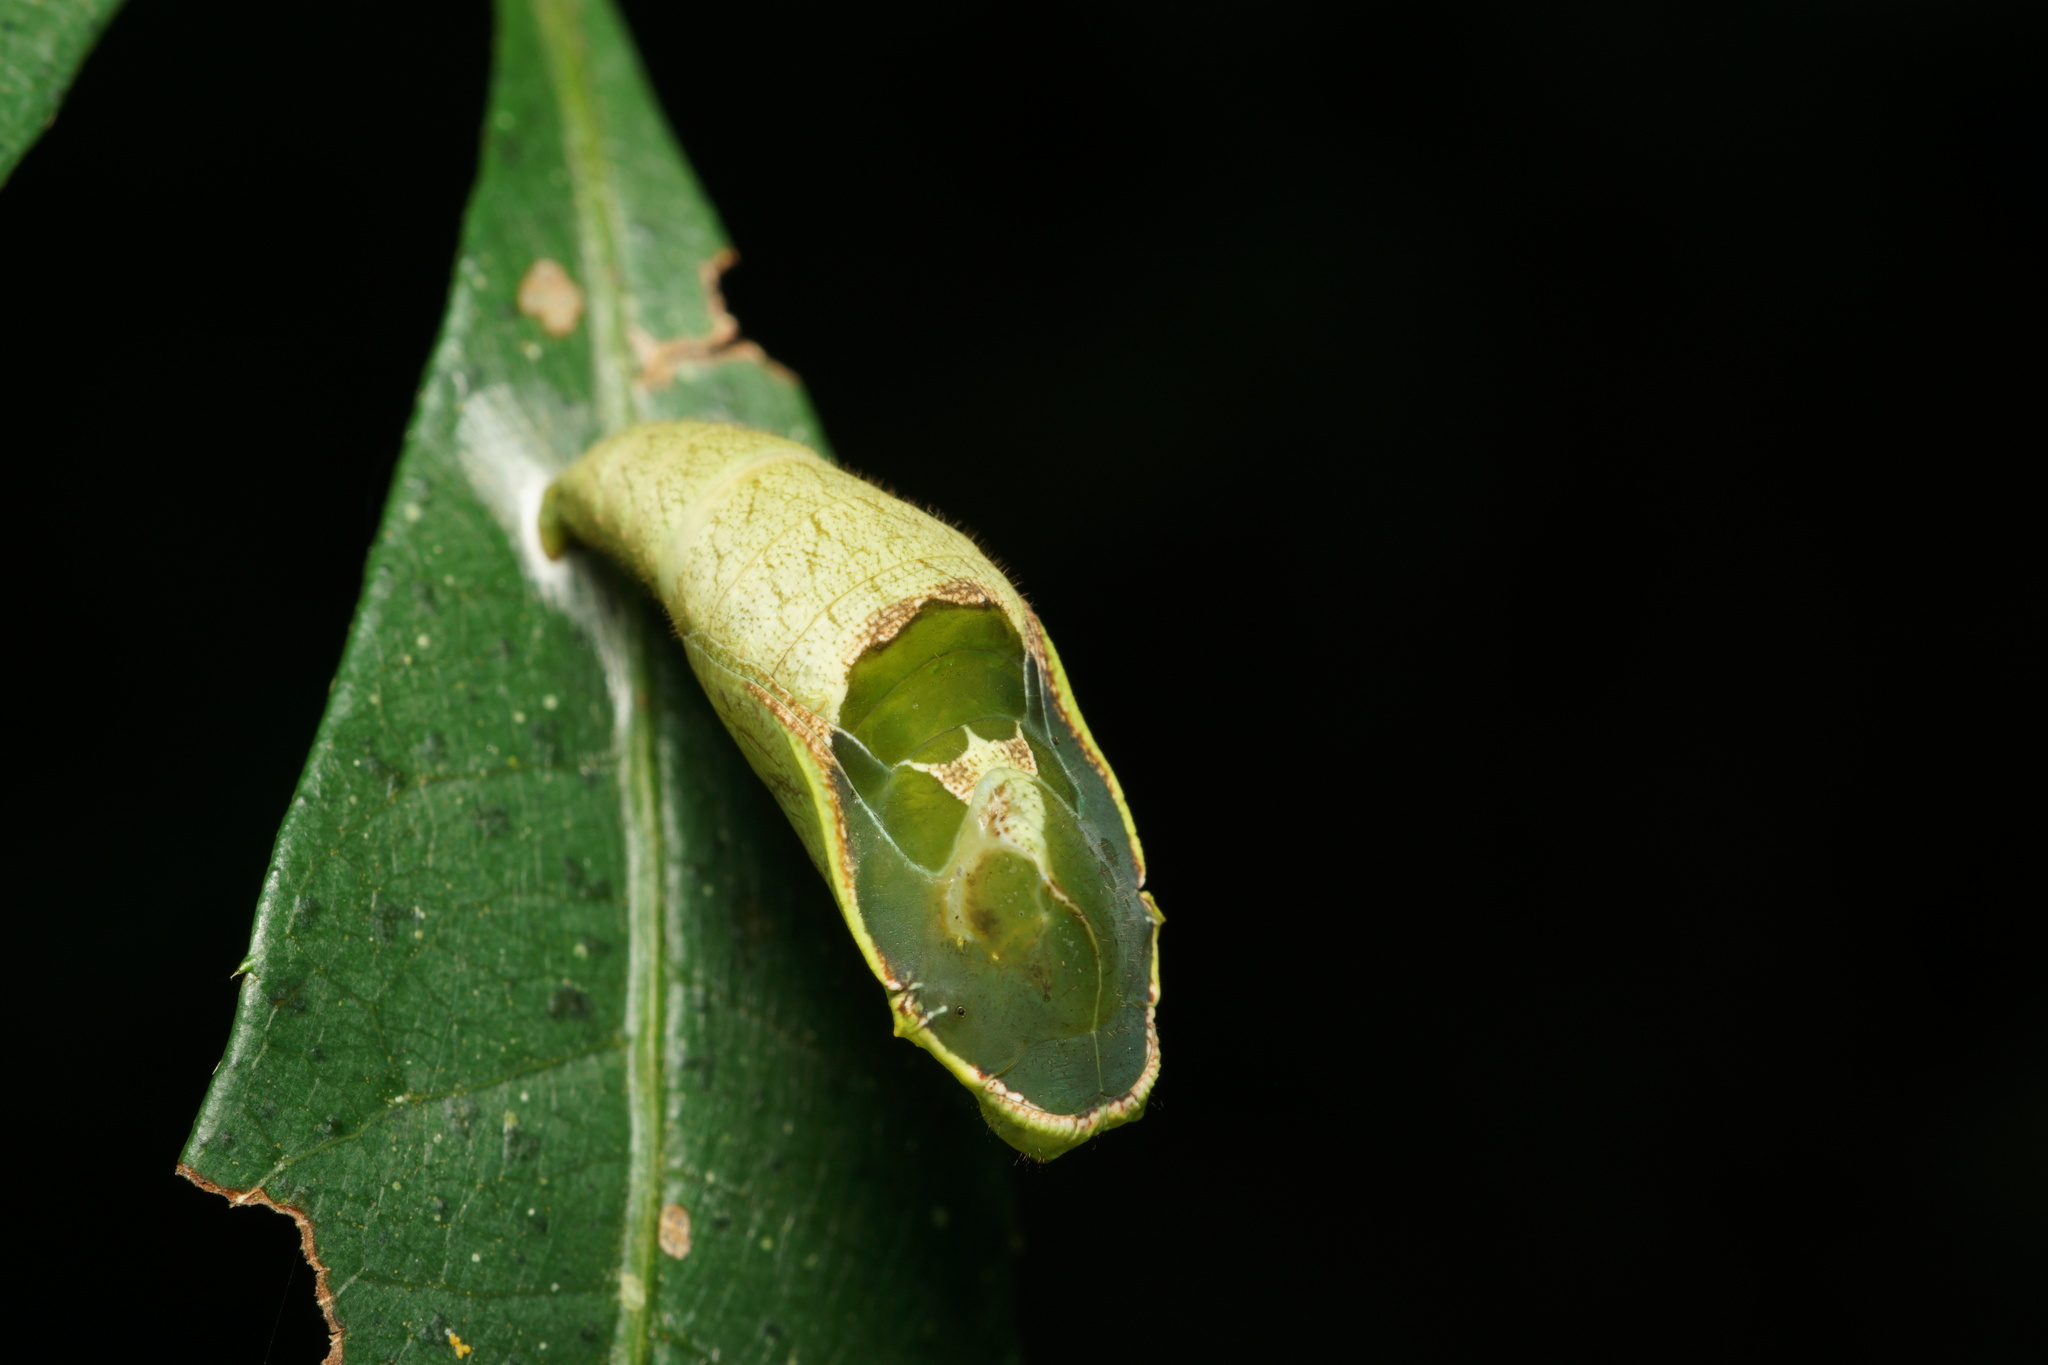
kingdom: Animalia
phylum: Arthropoda
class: Insecta
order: Lepidoptera
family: Nymphalidae
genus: Catagramma
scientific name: Catagramma pygas
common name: Godart's numberwing
